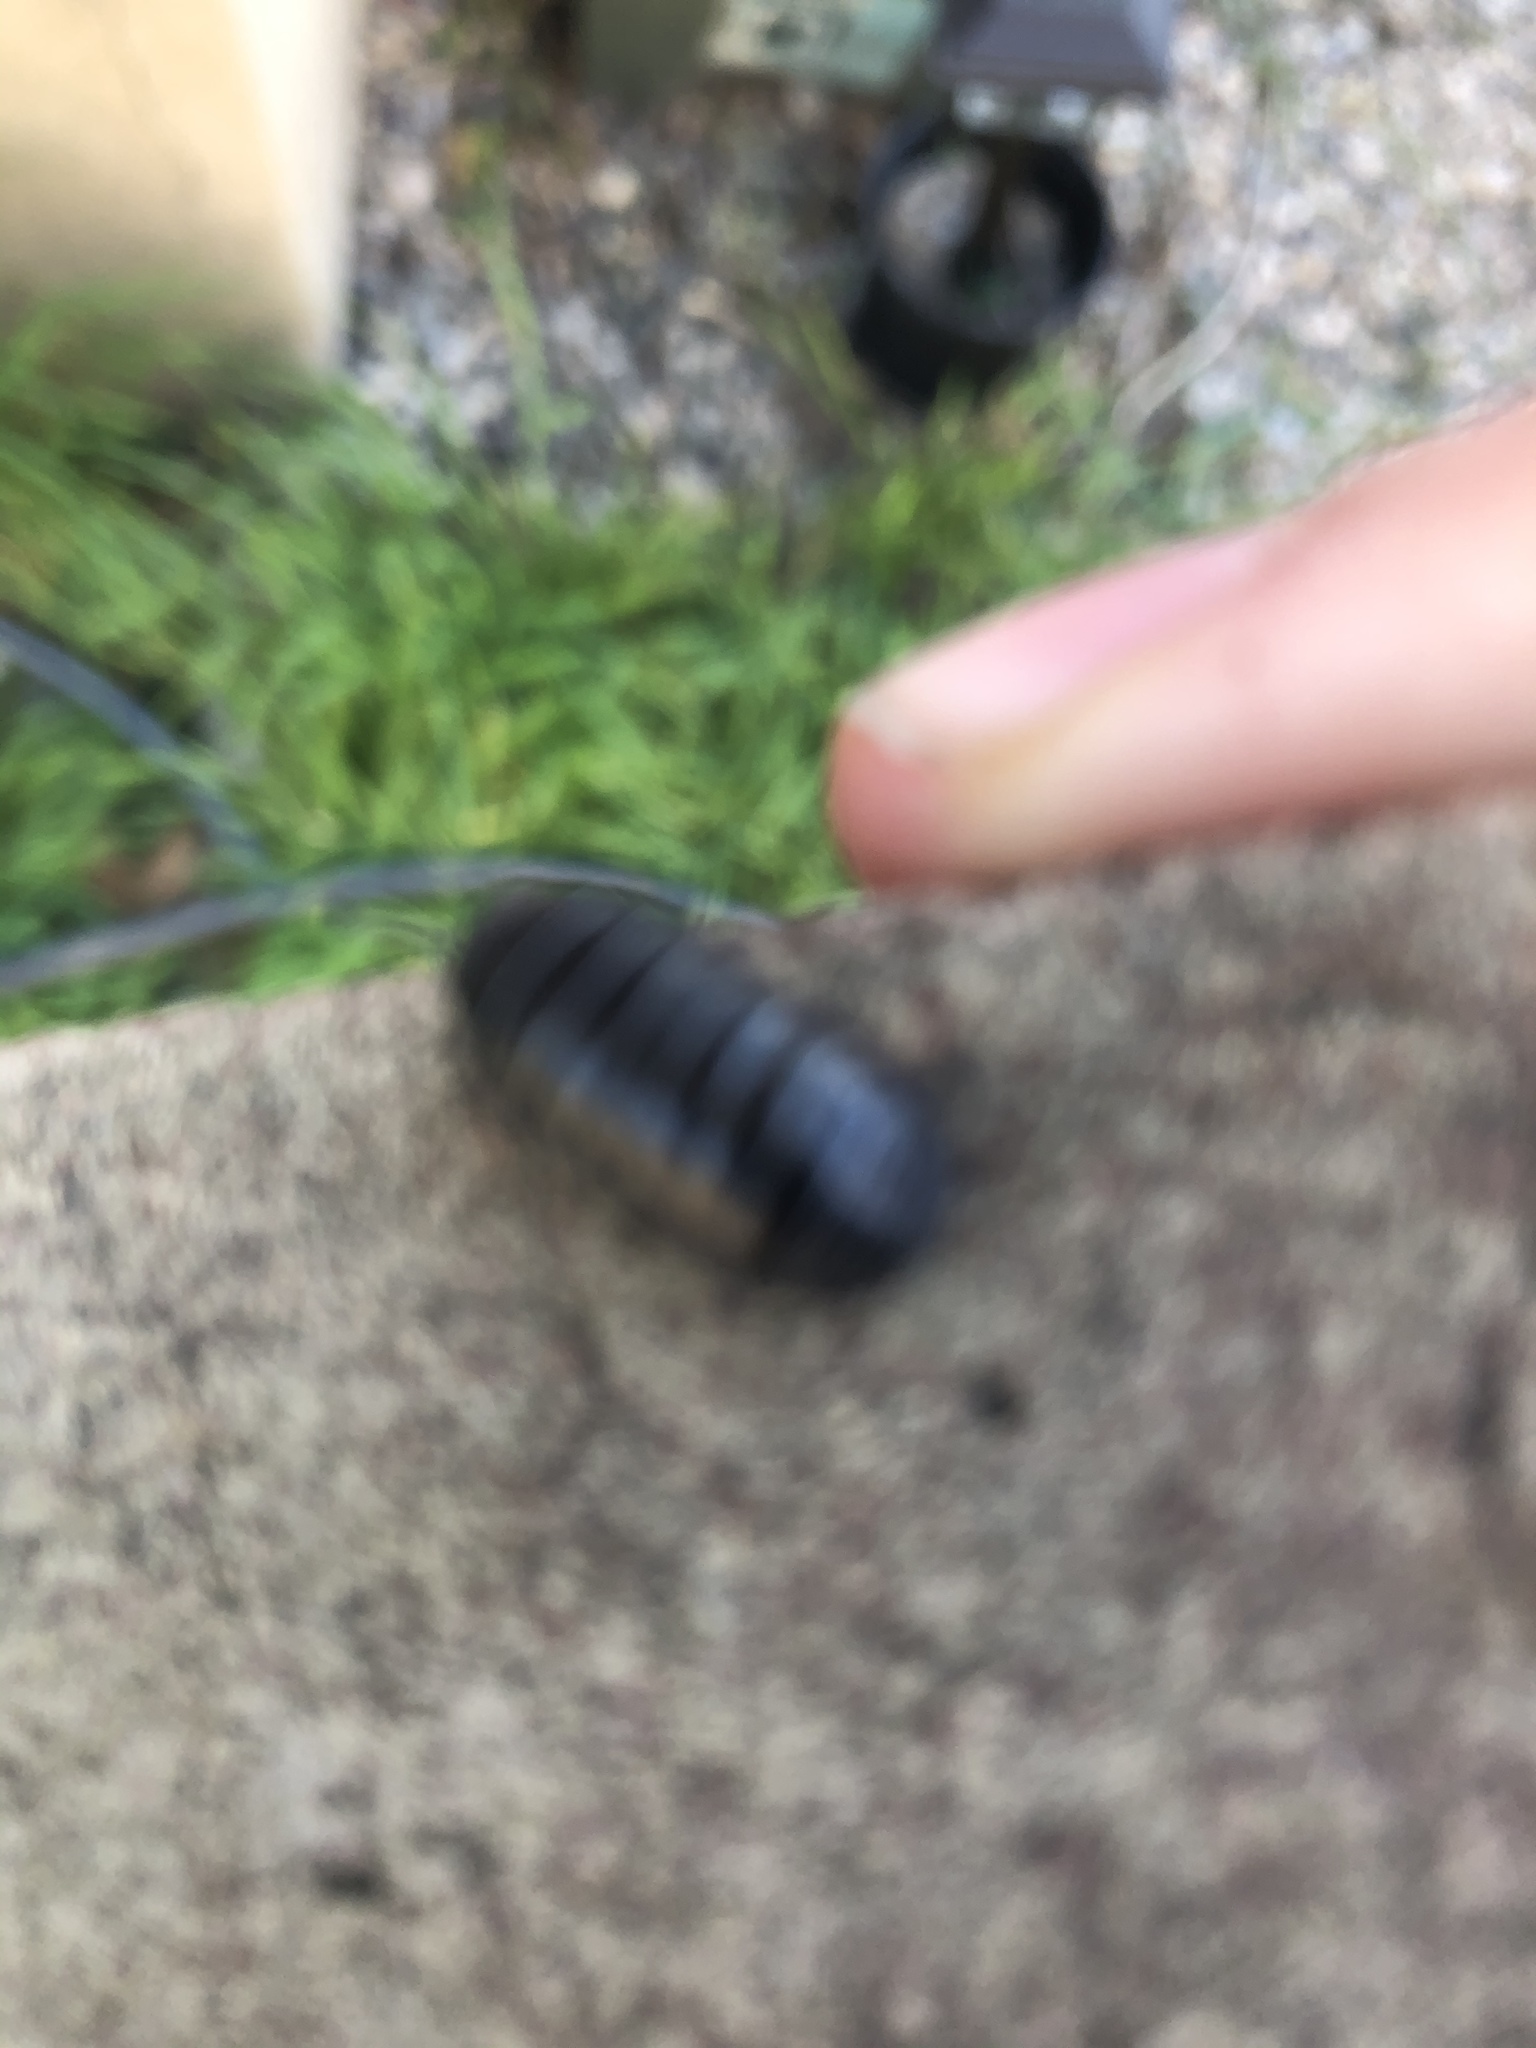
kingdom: Animalia
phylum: Arthropoda
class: Malacostraca
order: Isopoda
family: Armadillidiidae
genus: Armadillidium
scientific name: Armadillidium vulgare
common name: Common pill woodlouse
